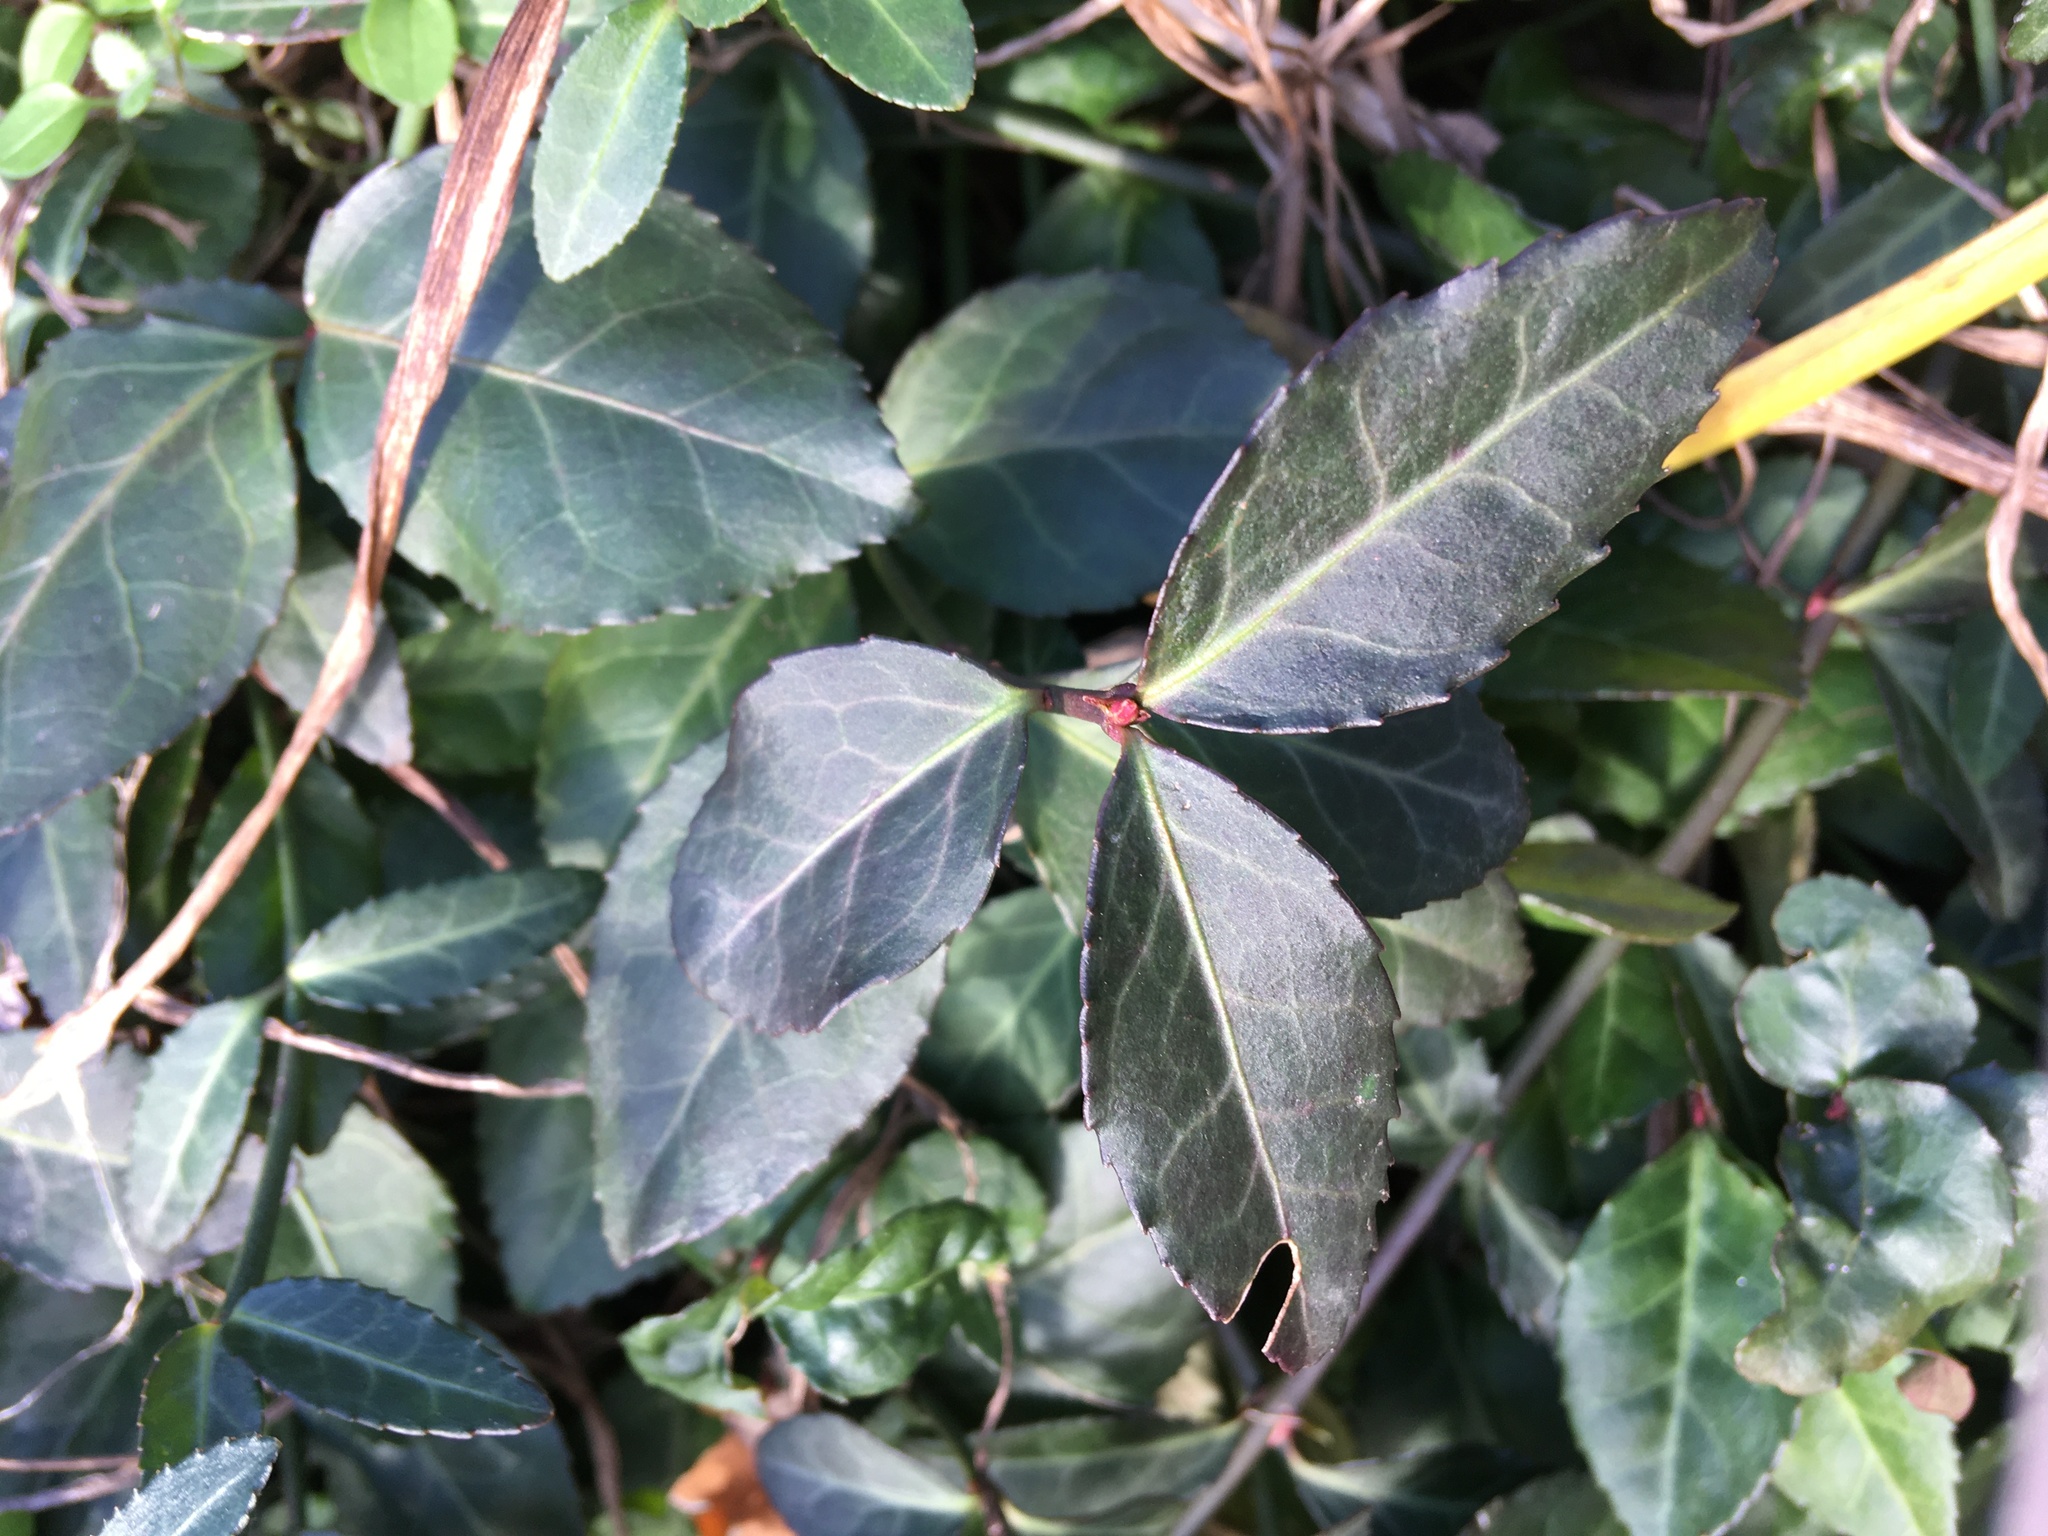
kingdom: Plantae
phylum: Tracheophyta
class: Magnoliopsida
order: Celastrales
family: Celastraceae
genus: Euonymus
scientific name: Euonymus fortunei
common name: Climbing euonymus
